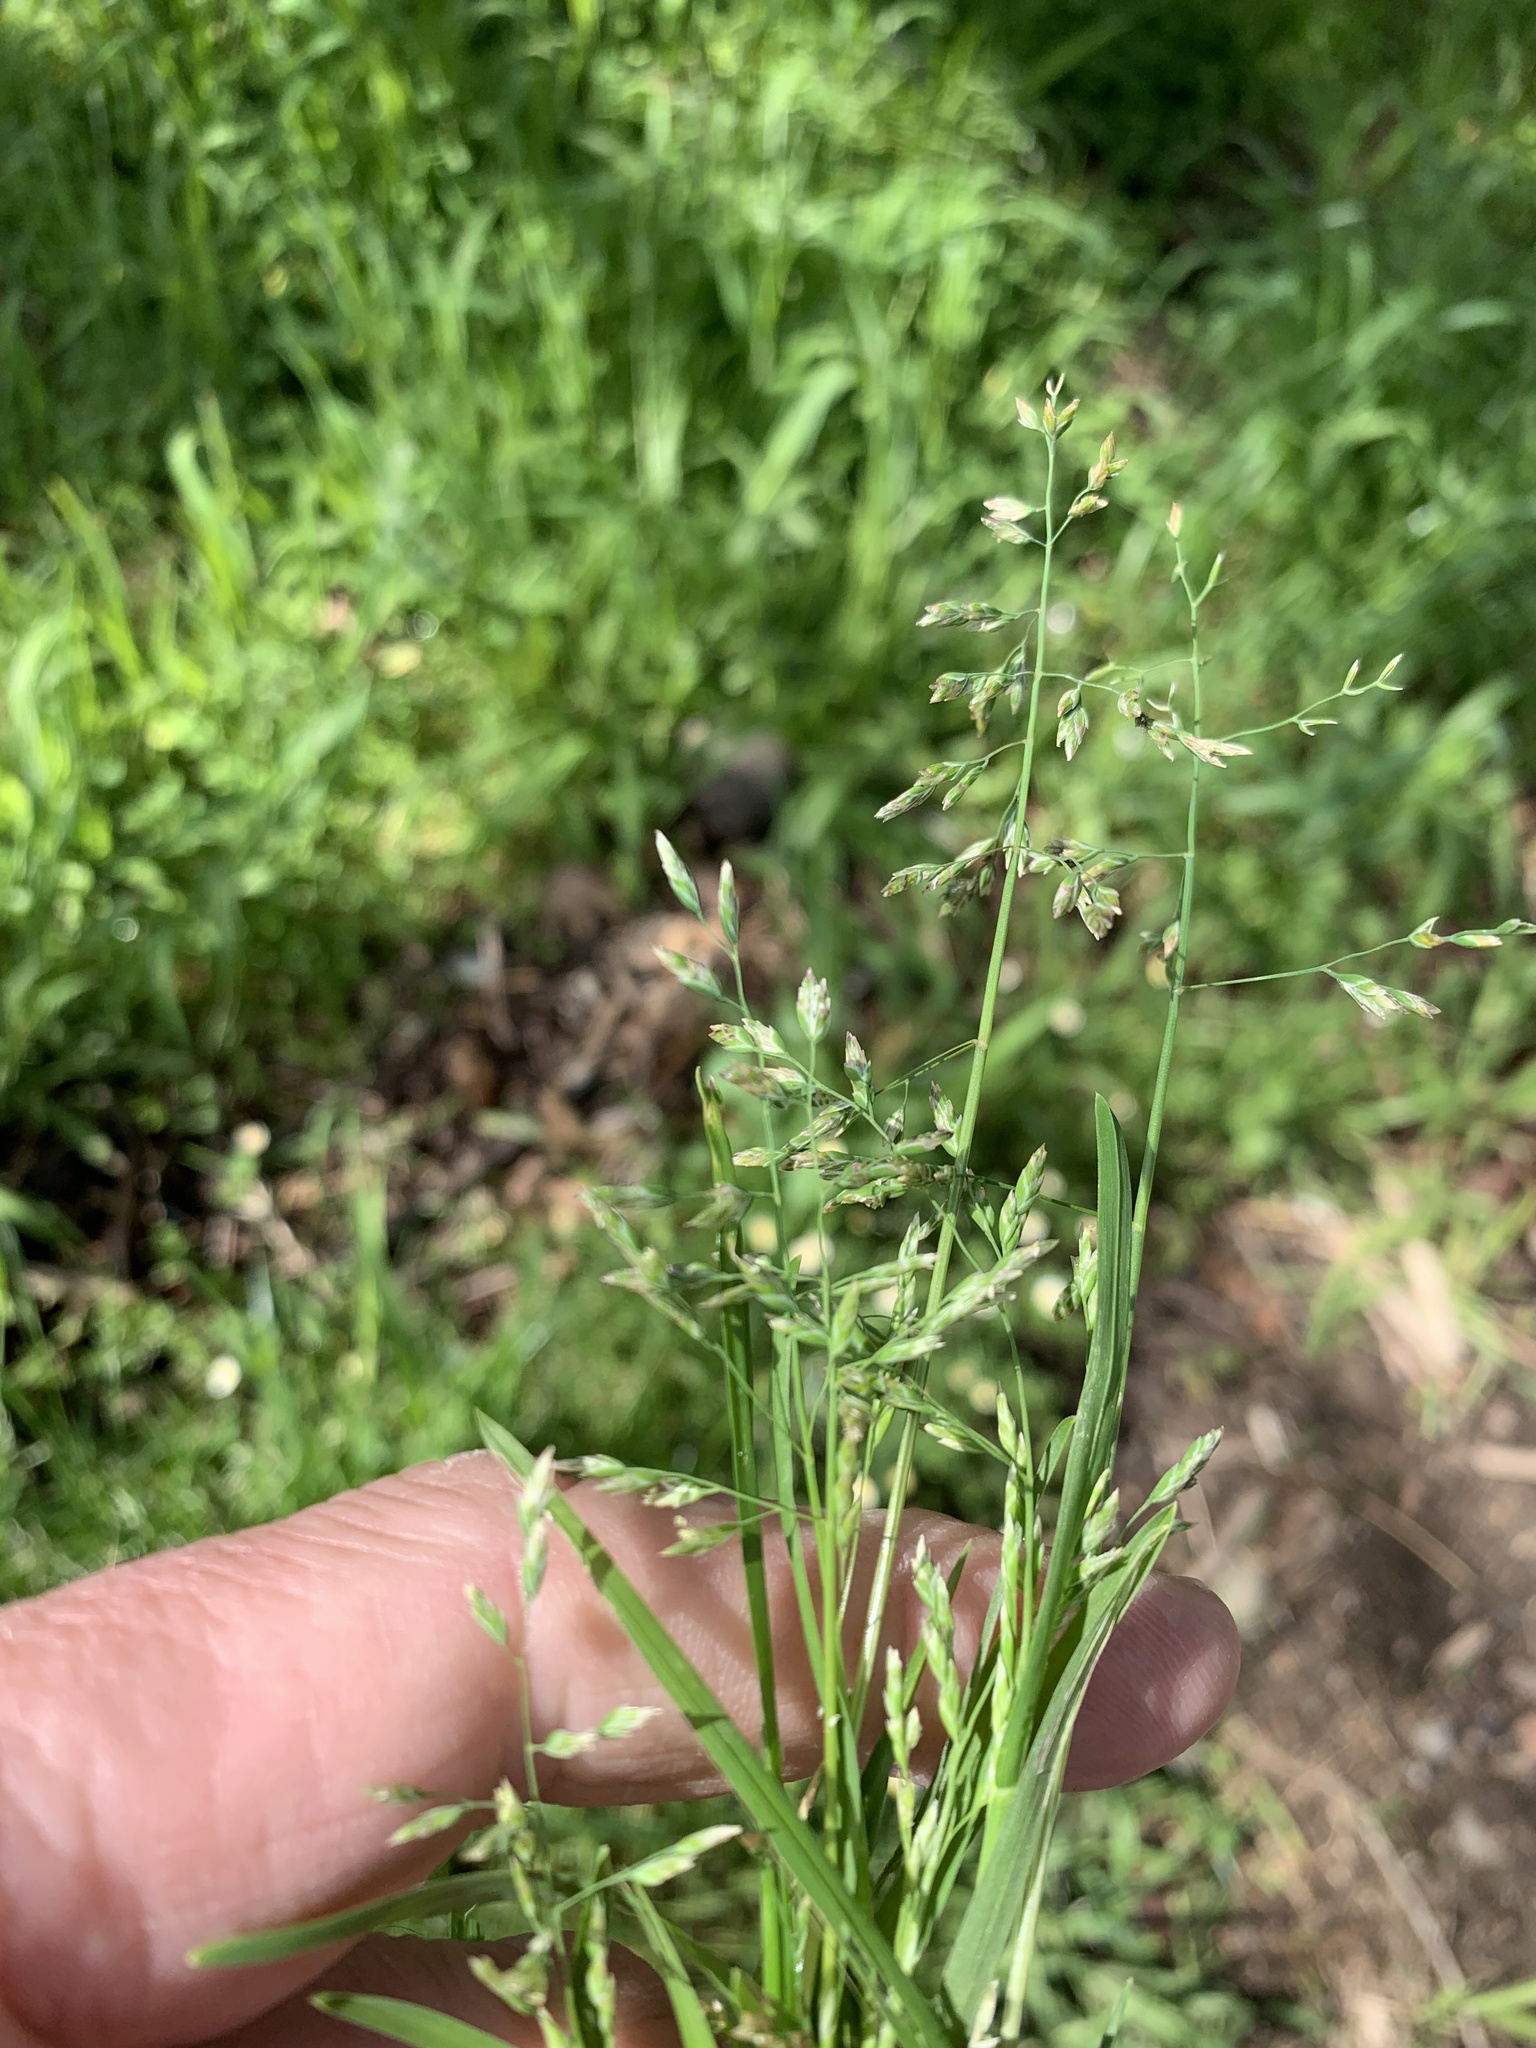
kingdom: Plantae
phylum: Tracheophyta
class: Liliopsida
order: Poales
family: Poaceae
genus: Poa
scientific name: Poa annua
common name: Annual bluegrass
